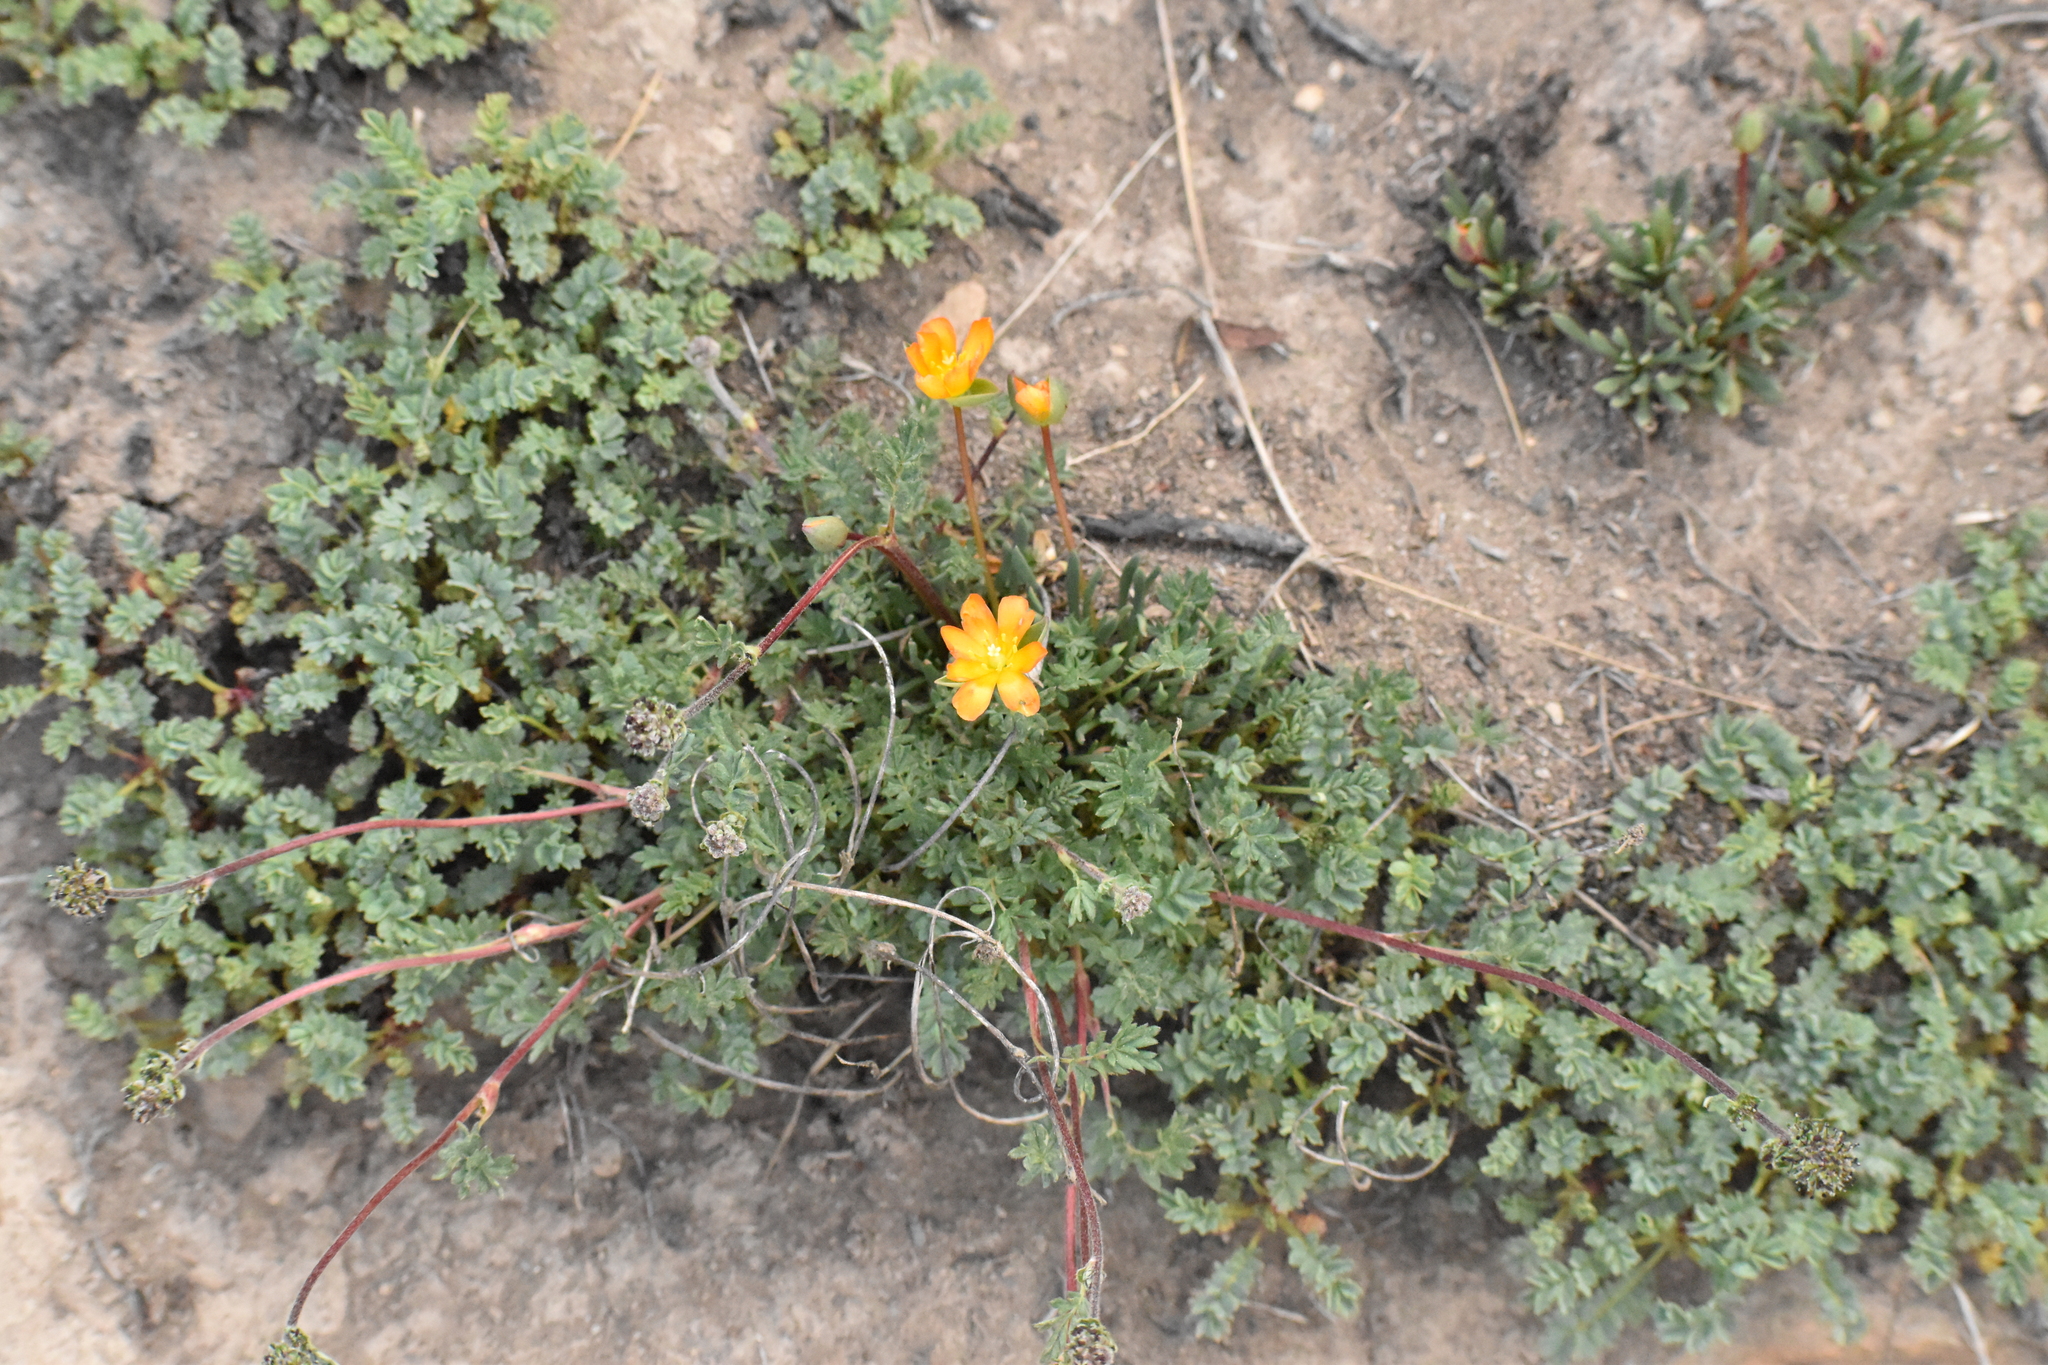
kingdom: Plantae
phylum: Tracheophyta
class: Magnoliopsida
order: Caryophyllales
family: Montiaceae
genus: Calandrinia
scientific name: Calandrinia caespitosa
